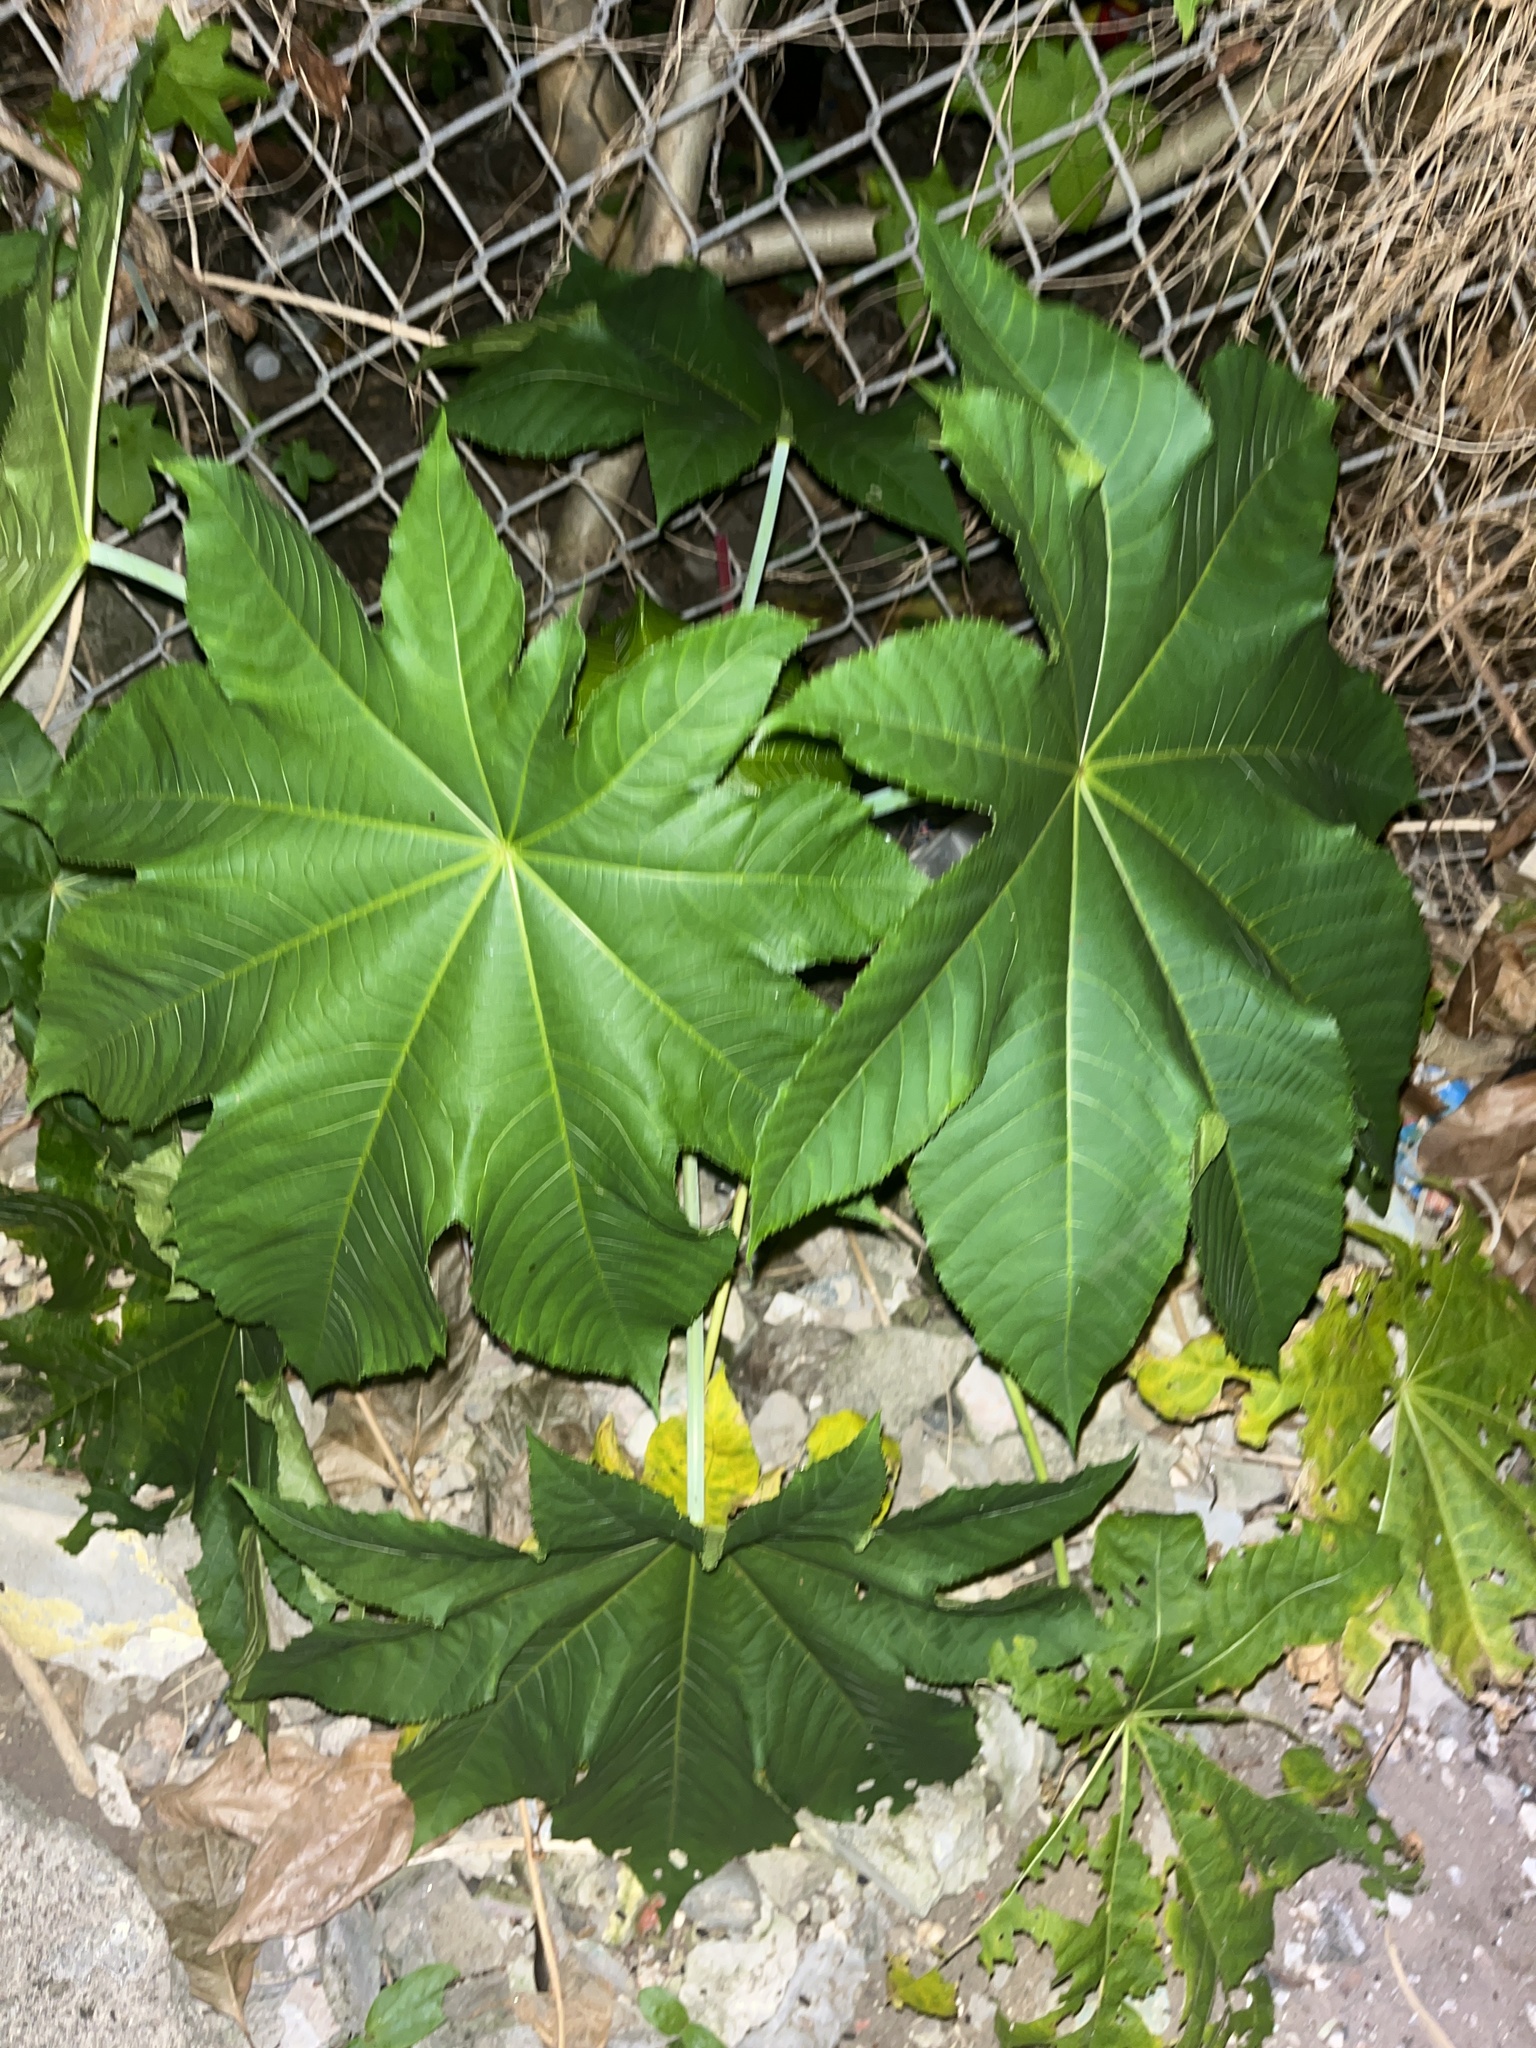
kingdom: Plantae
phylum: Tracheophyta
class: Magnoliopsida
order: Malpighiales
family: Euphorbiaceae
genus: Ricinus
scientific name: Ricinus communis
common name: Castor-oil-plant
